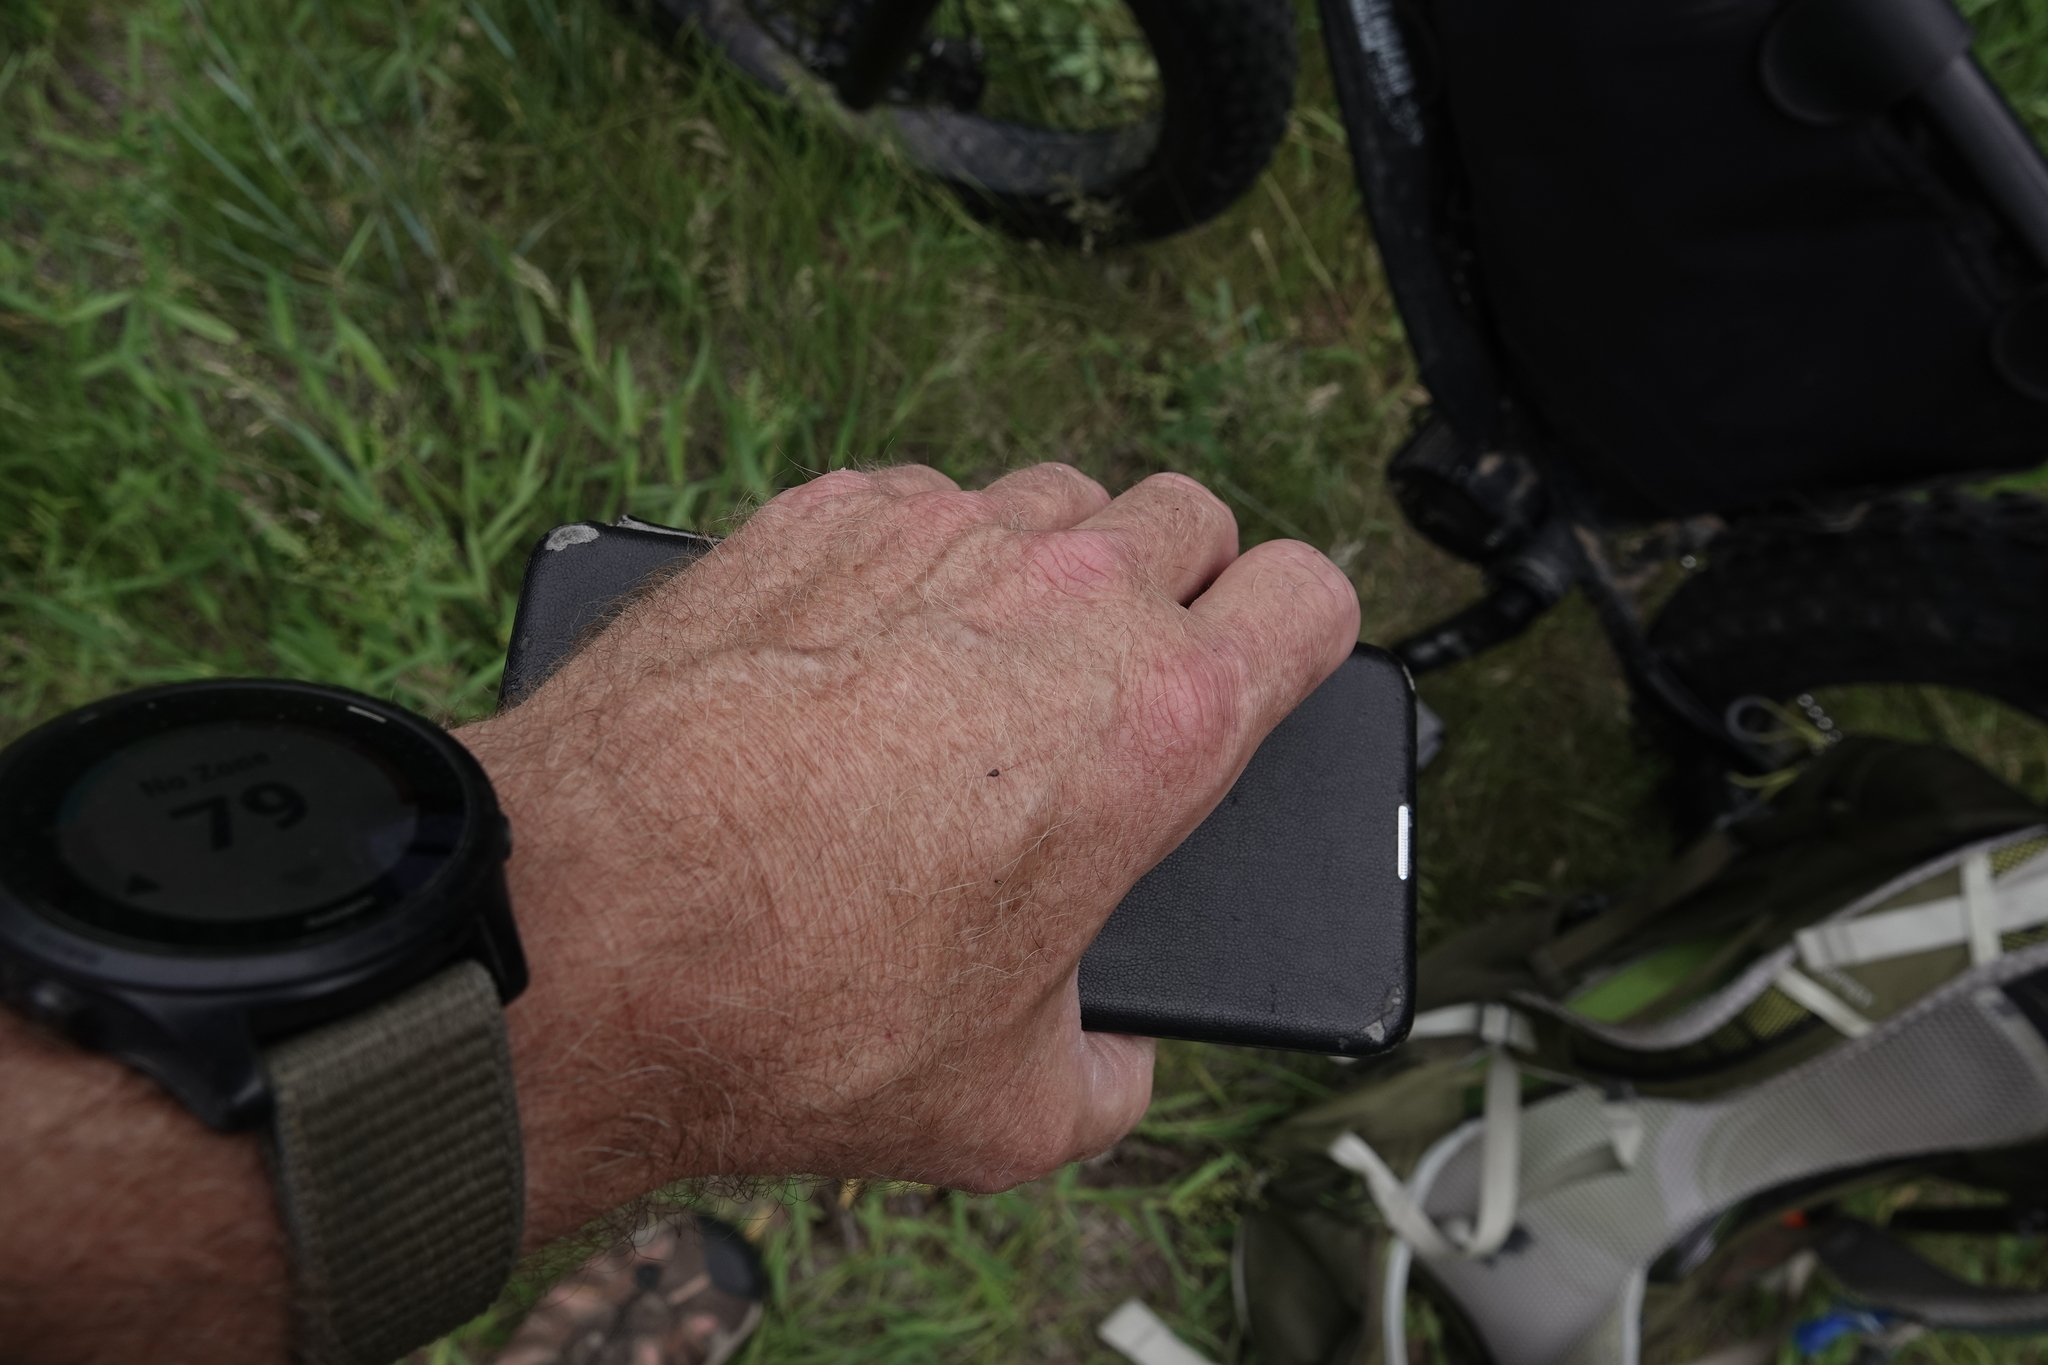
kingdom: Animalia
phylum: Arthropoda
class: Insecta
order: Lepidoptera
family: Crambidae
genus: Desmia
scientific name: Desmia funeralis
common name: Grape leaf folder moth
